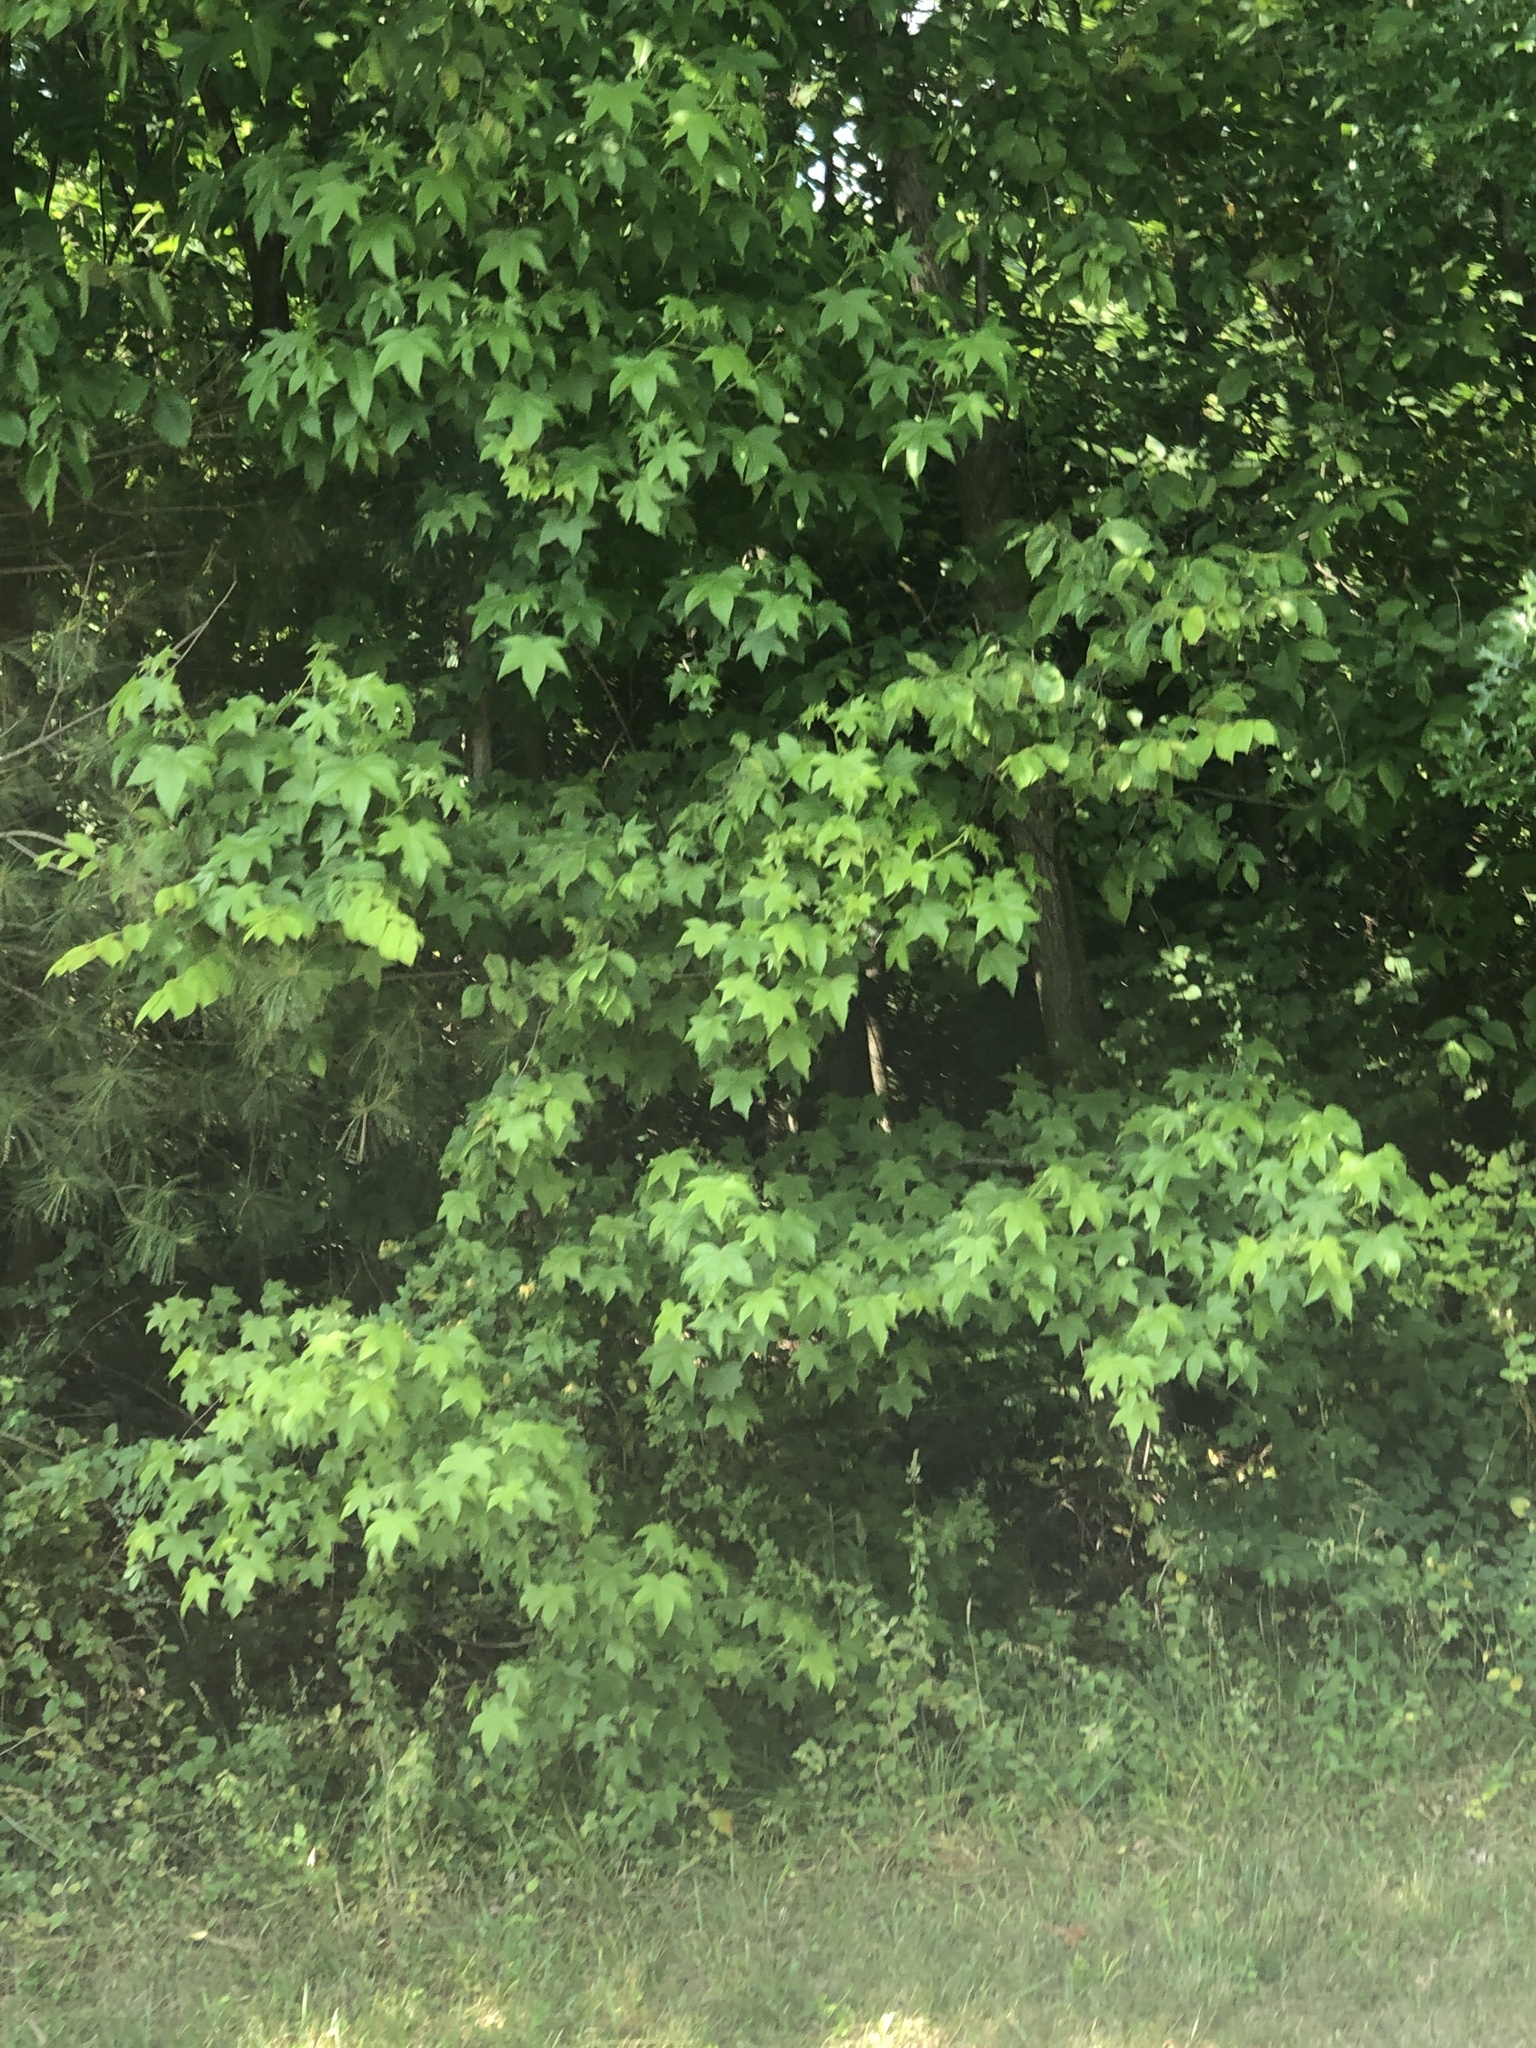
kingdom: Plantae
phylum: Tracheophyta
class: Magnoliopsida
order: Saxifragales
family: Altingiaceae
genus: Liquidambar
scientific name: Liquidambar styraciflua
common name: Sweet gum
